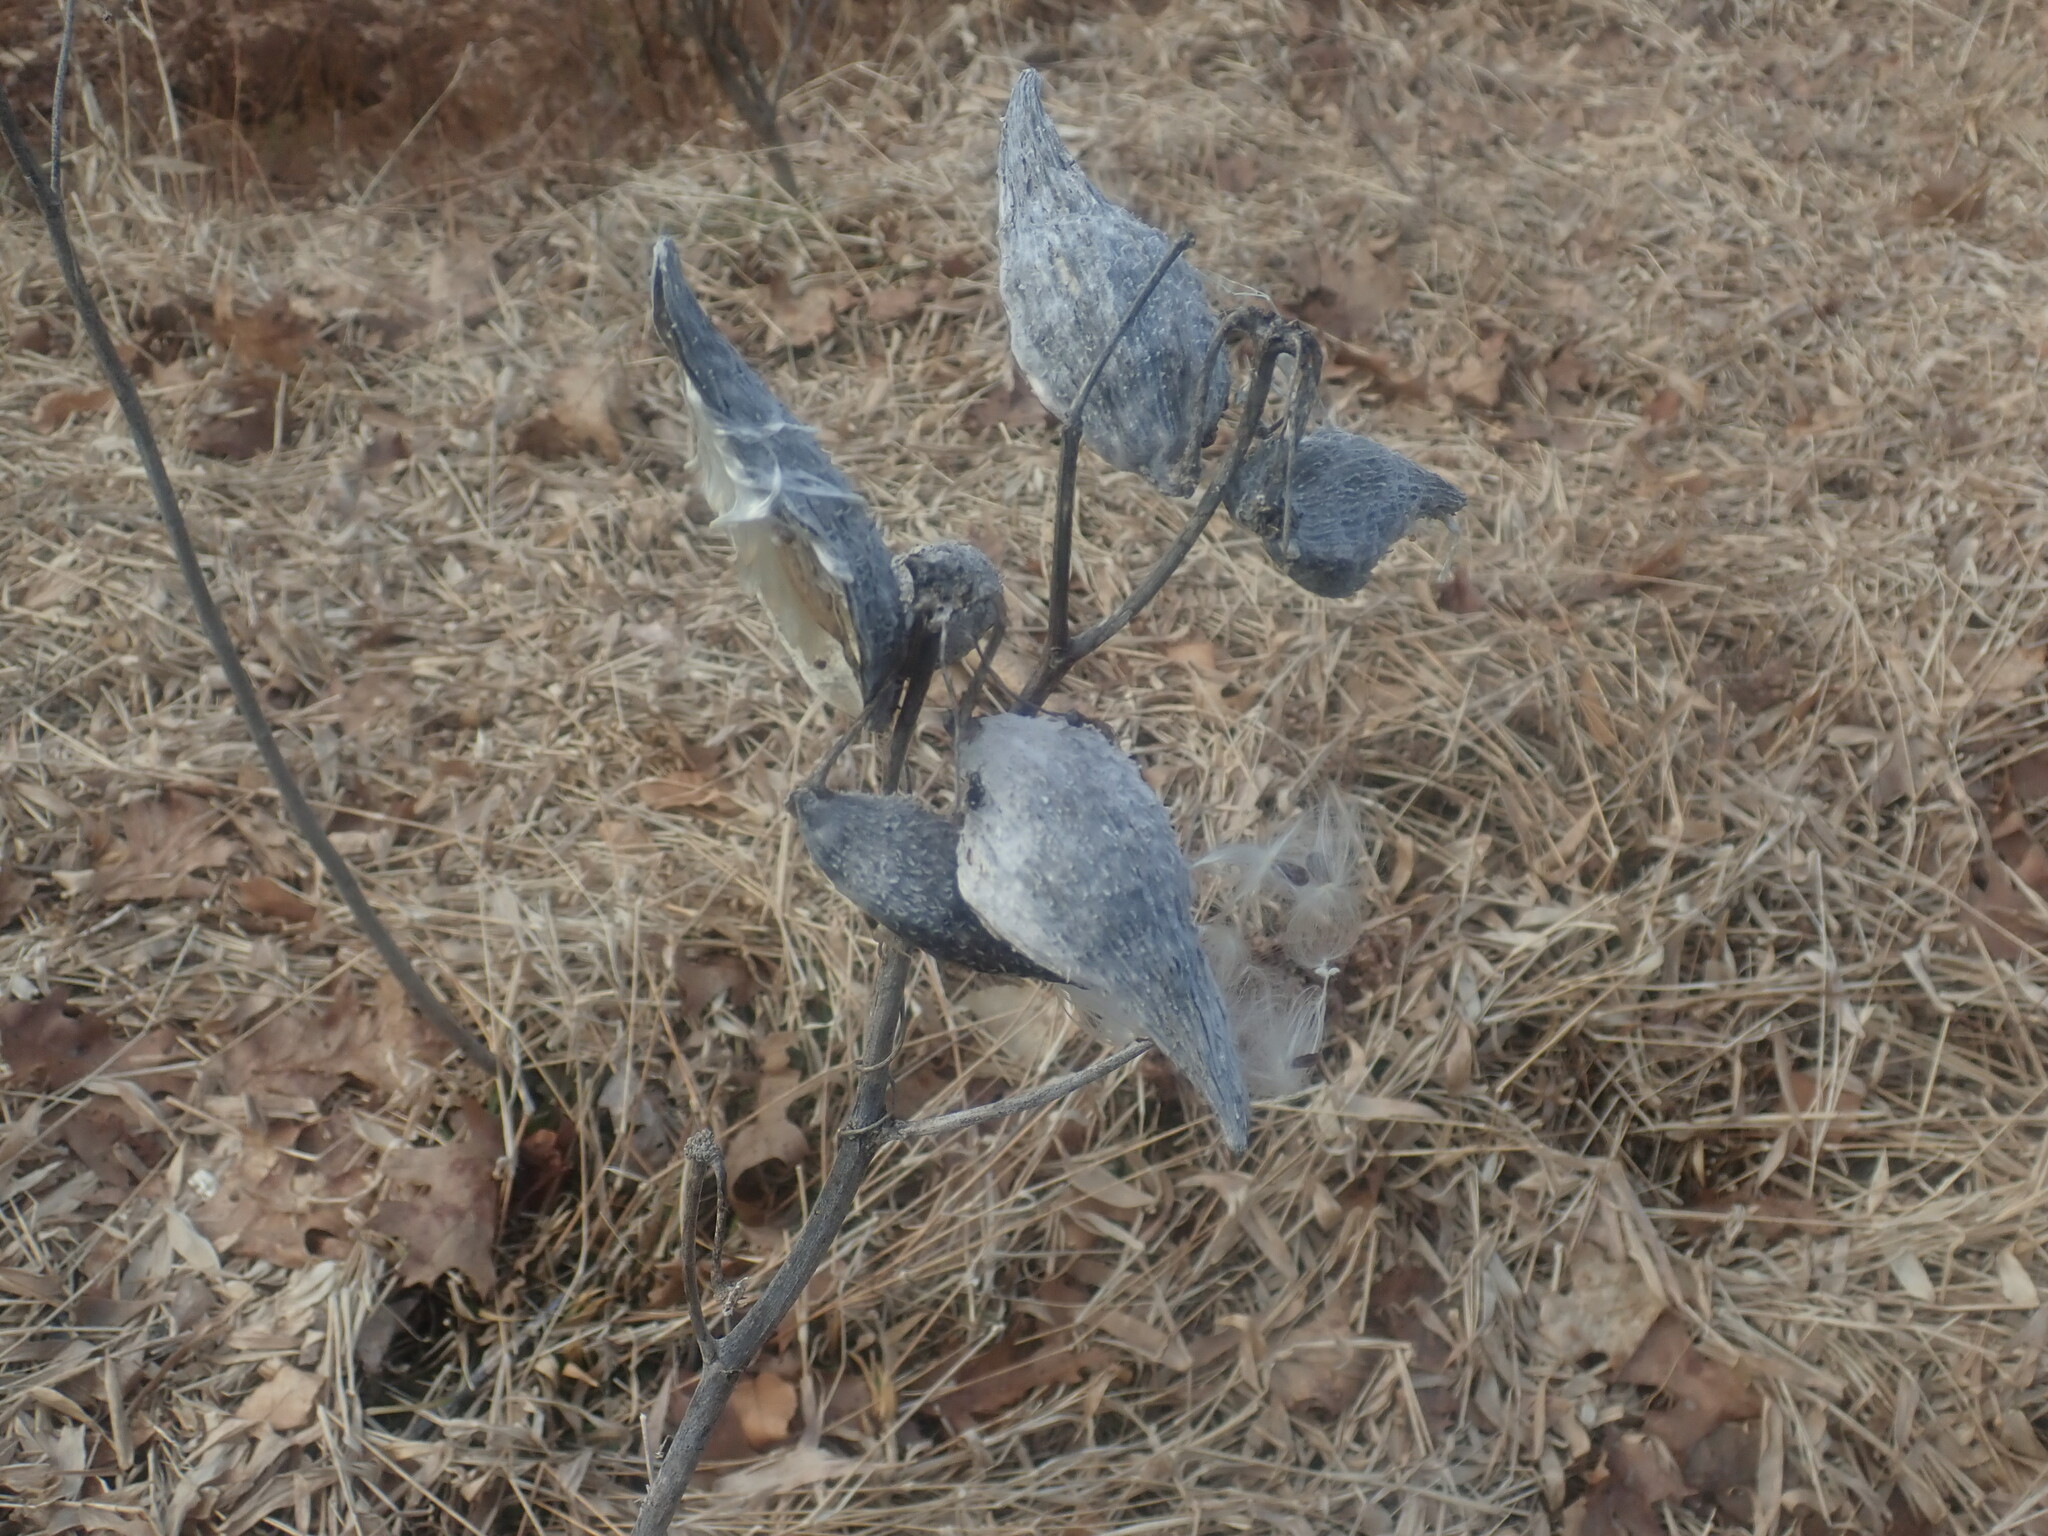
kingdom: Plantae
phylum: Tracheophyta
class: Magnoliopsida
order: Gentianales
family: Apocynaceae
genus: Asclepias
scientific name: Asclepias syriaca
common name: Common milkweed
